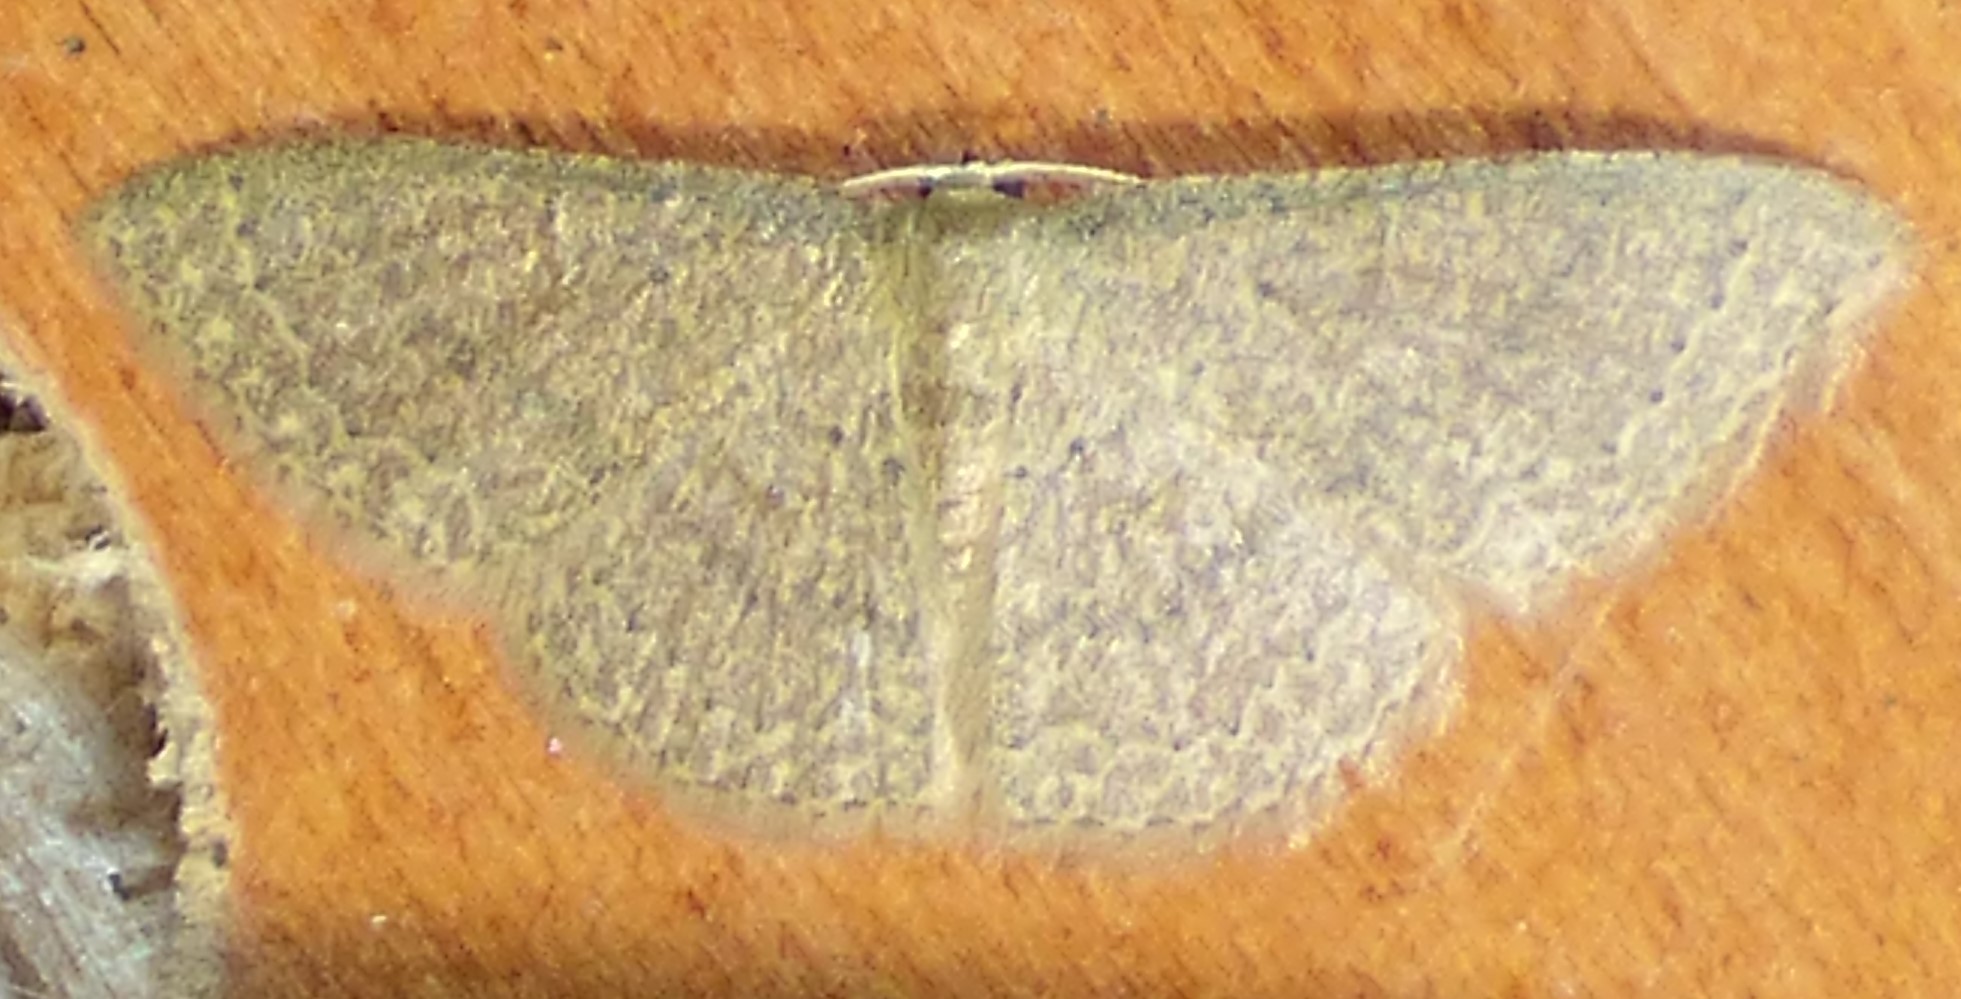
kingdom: Animalia
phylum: Arthropoda
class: Insecta
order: Lepidoptera
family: Geometridae
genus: Pleuroprucha
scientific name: Pleuroprucha insulsaria
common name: Common tan wave
